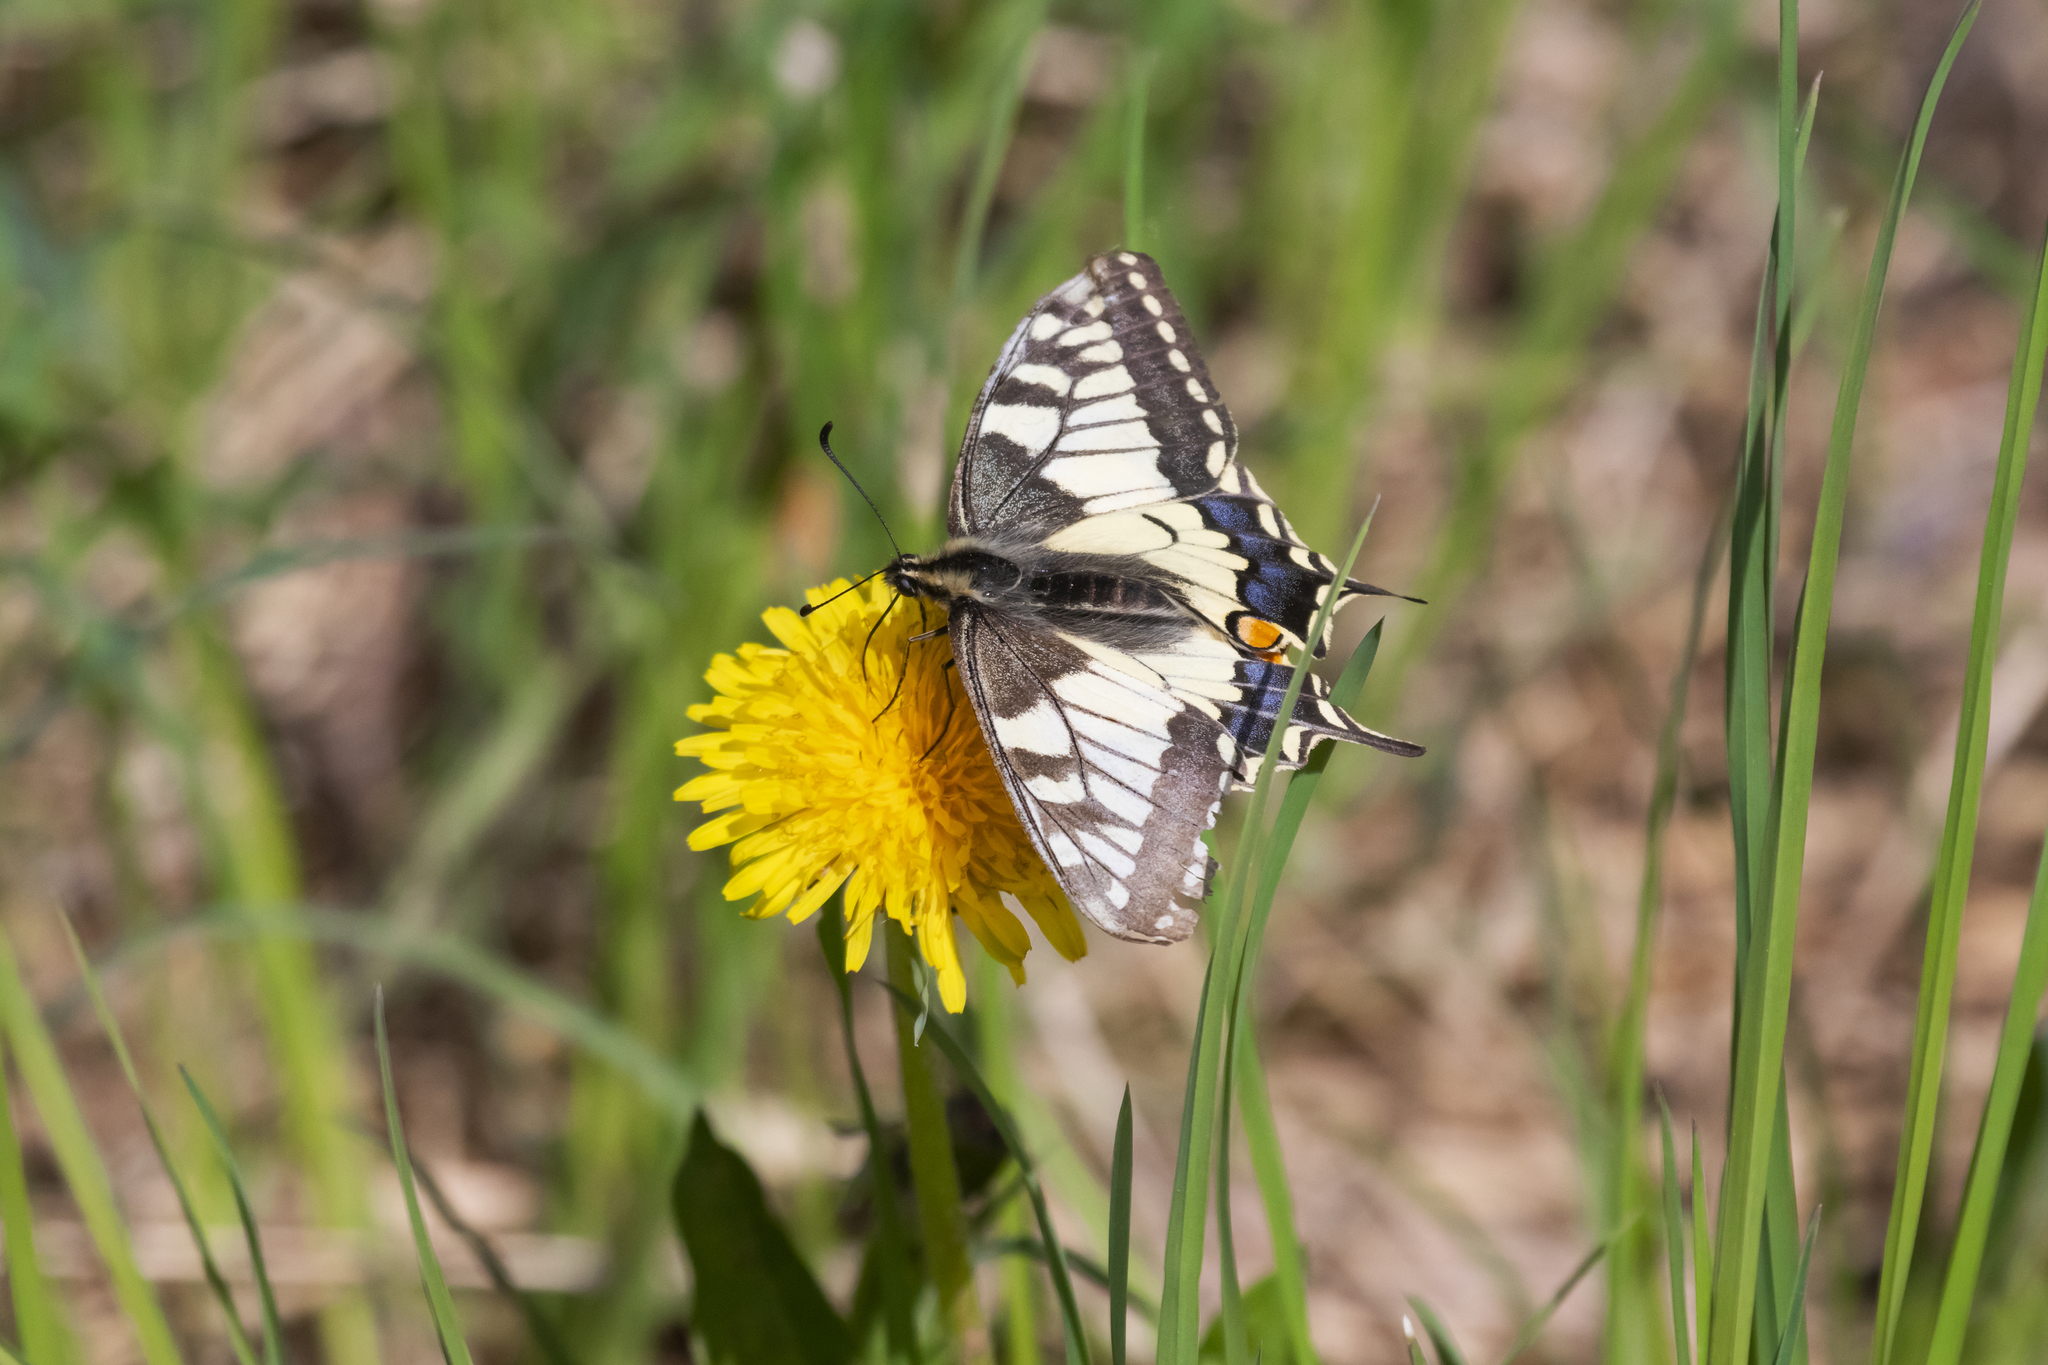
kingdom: Animalia
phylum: Arthropoda
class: Insecta
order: Lepidoptera
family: Papilionidae
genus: Papilio
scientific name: Papilio machaon
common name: Swallowtail
